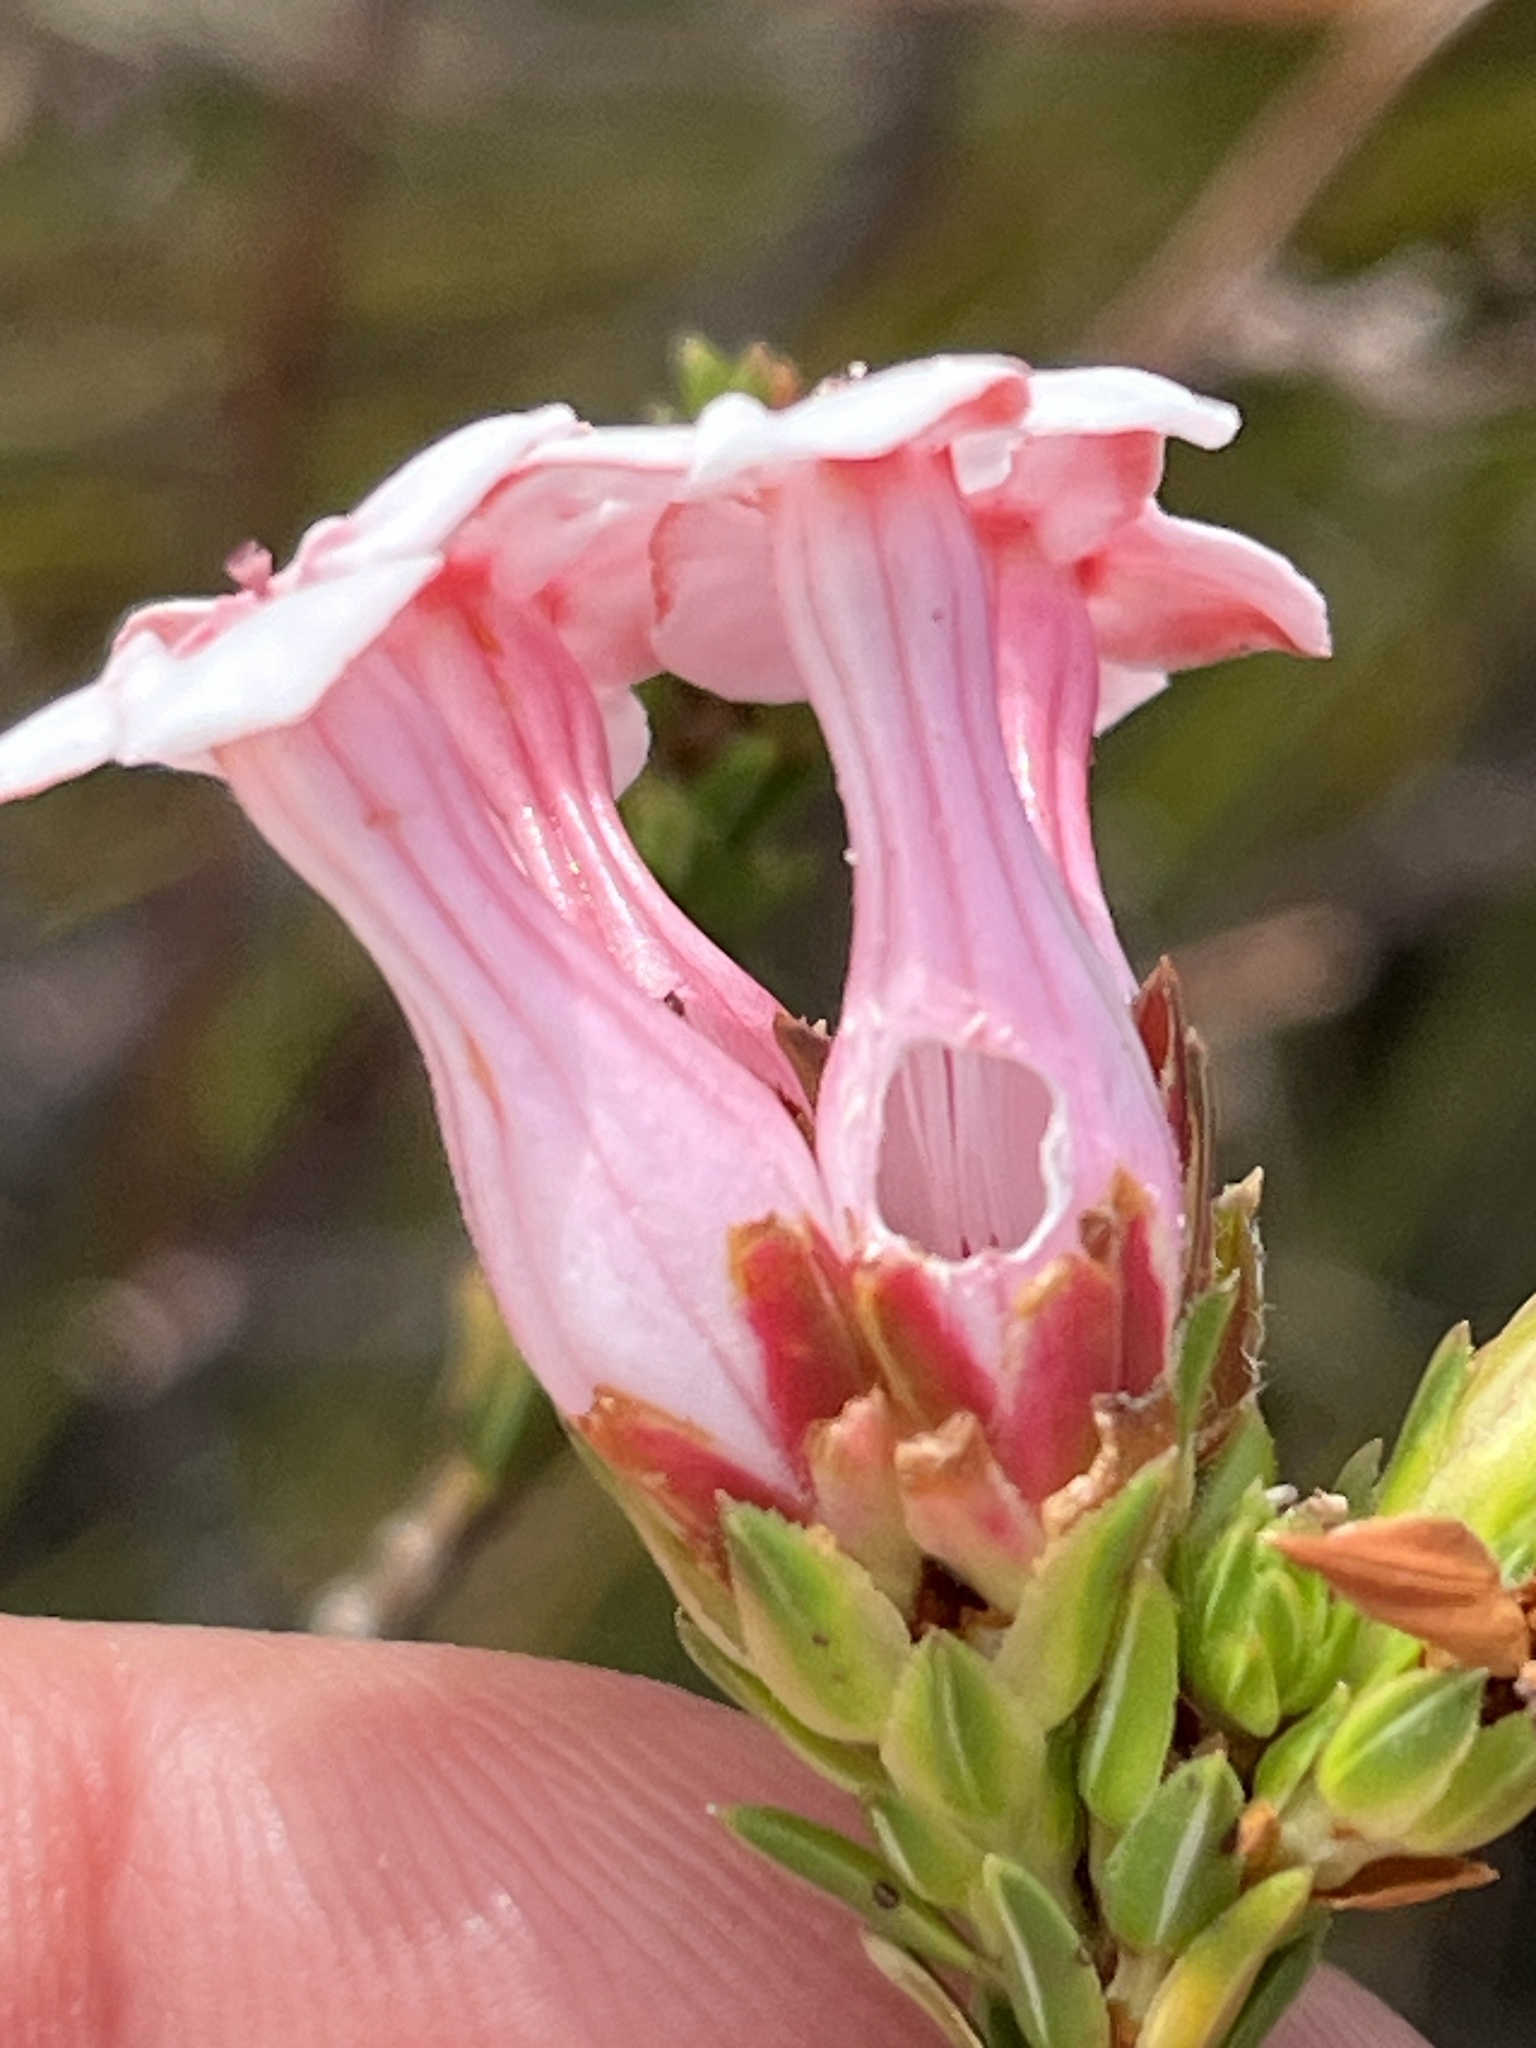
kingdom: Plantae
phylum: Tracheophyta
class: Magnoliopsida
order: Ericales
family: Ericaceae
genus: Erica
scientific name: Erica ampullacea
